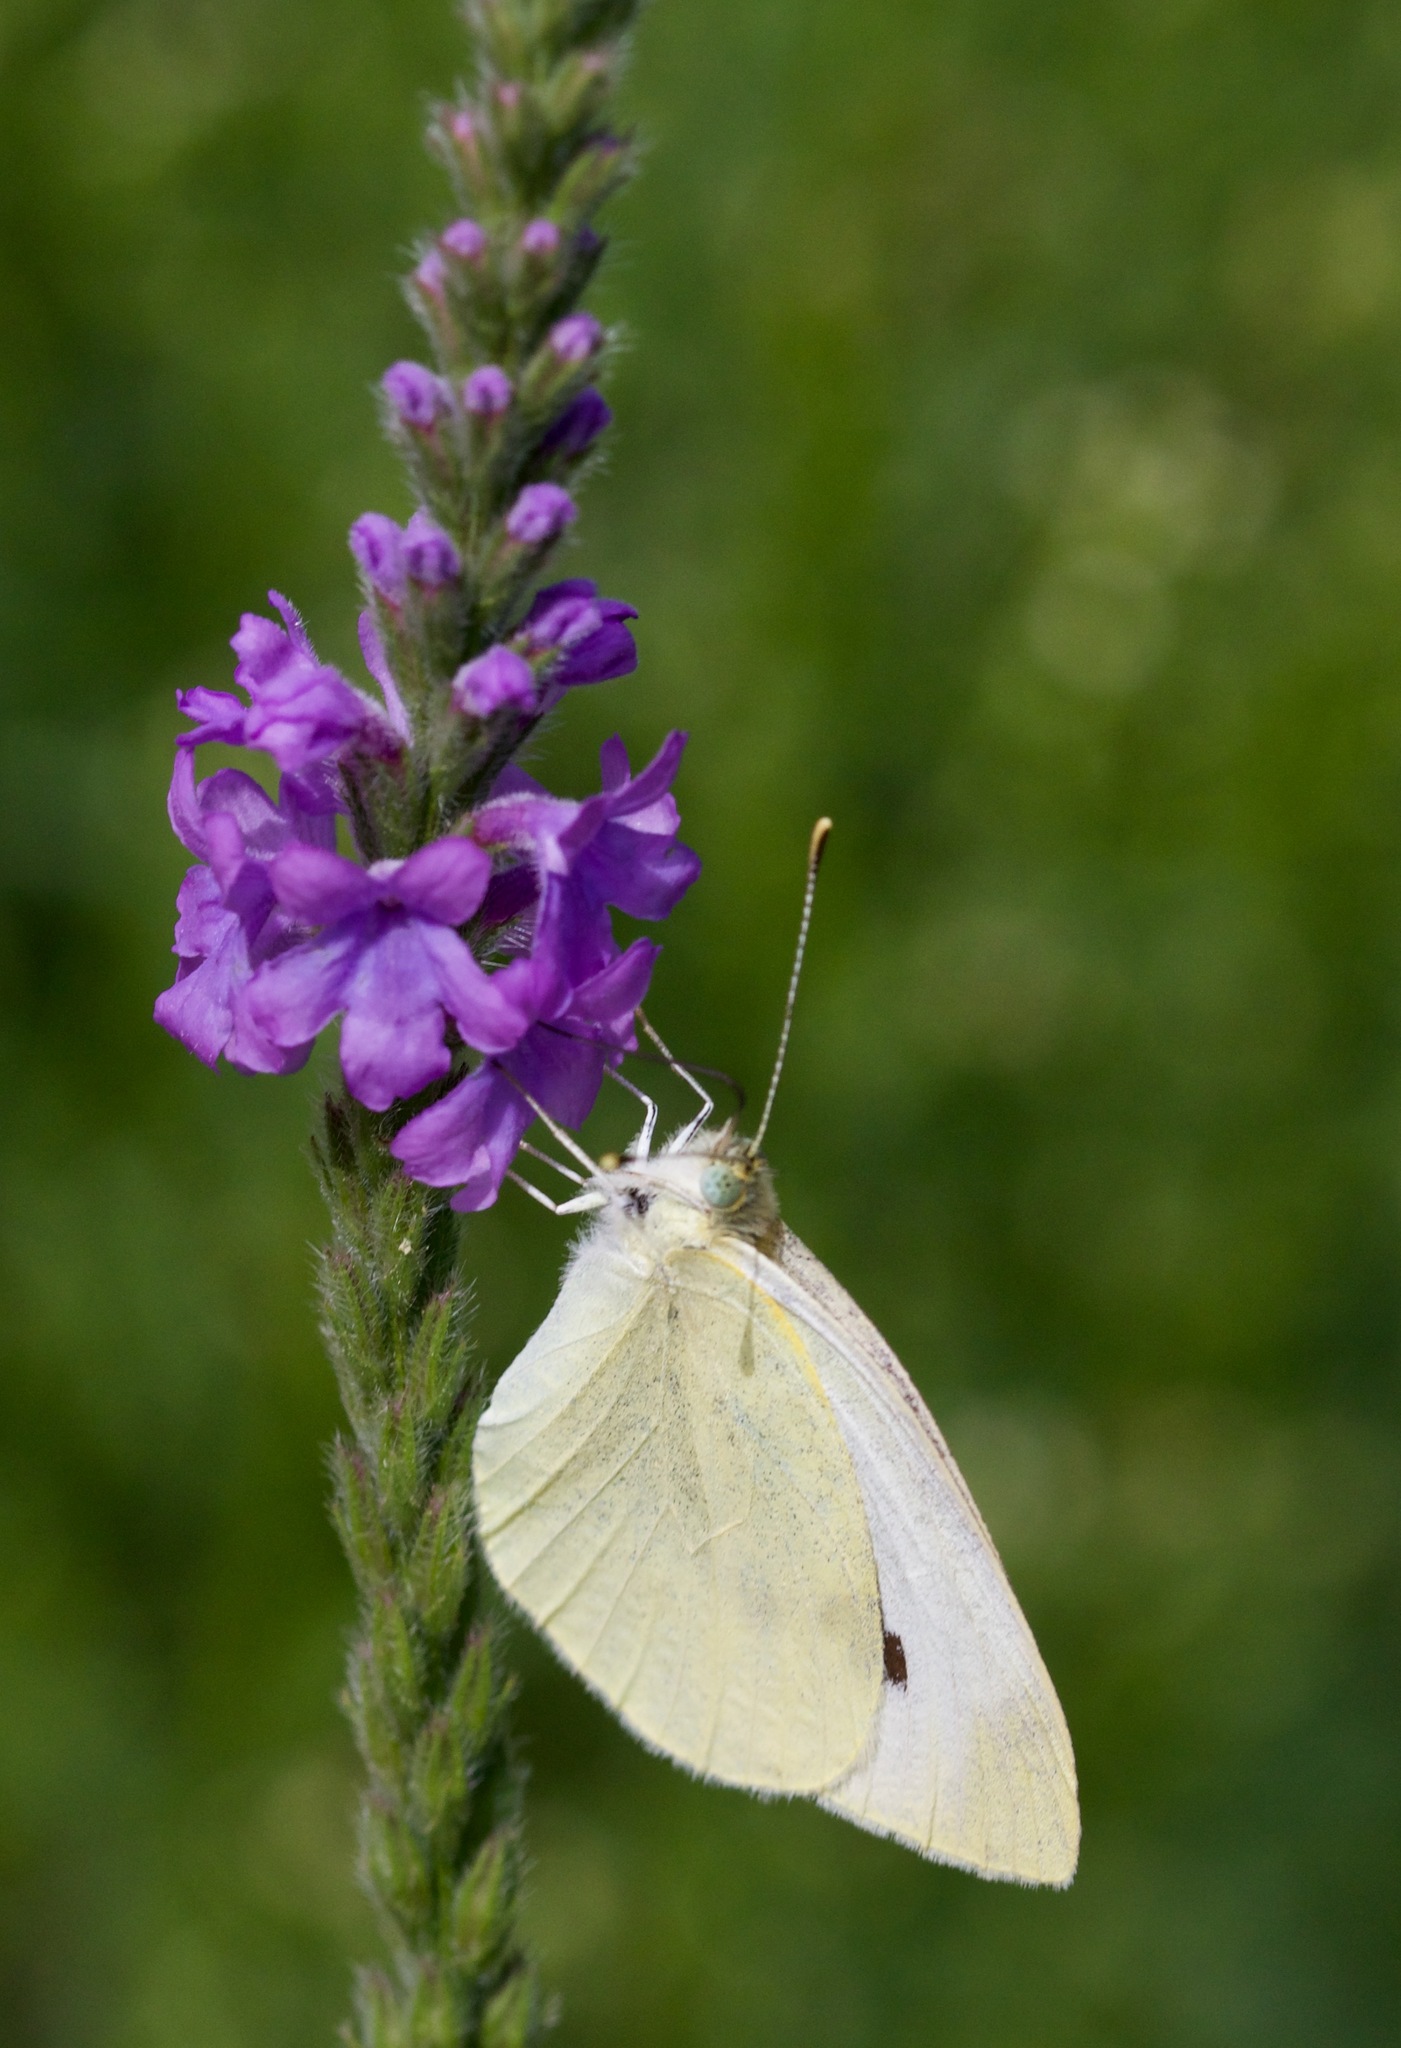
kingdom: Animalia
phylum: Arthropoda
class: Insecta
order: Lepidoptera
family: Pieridae
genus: Pieris
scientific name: Pieris rapae
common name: Small white
